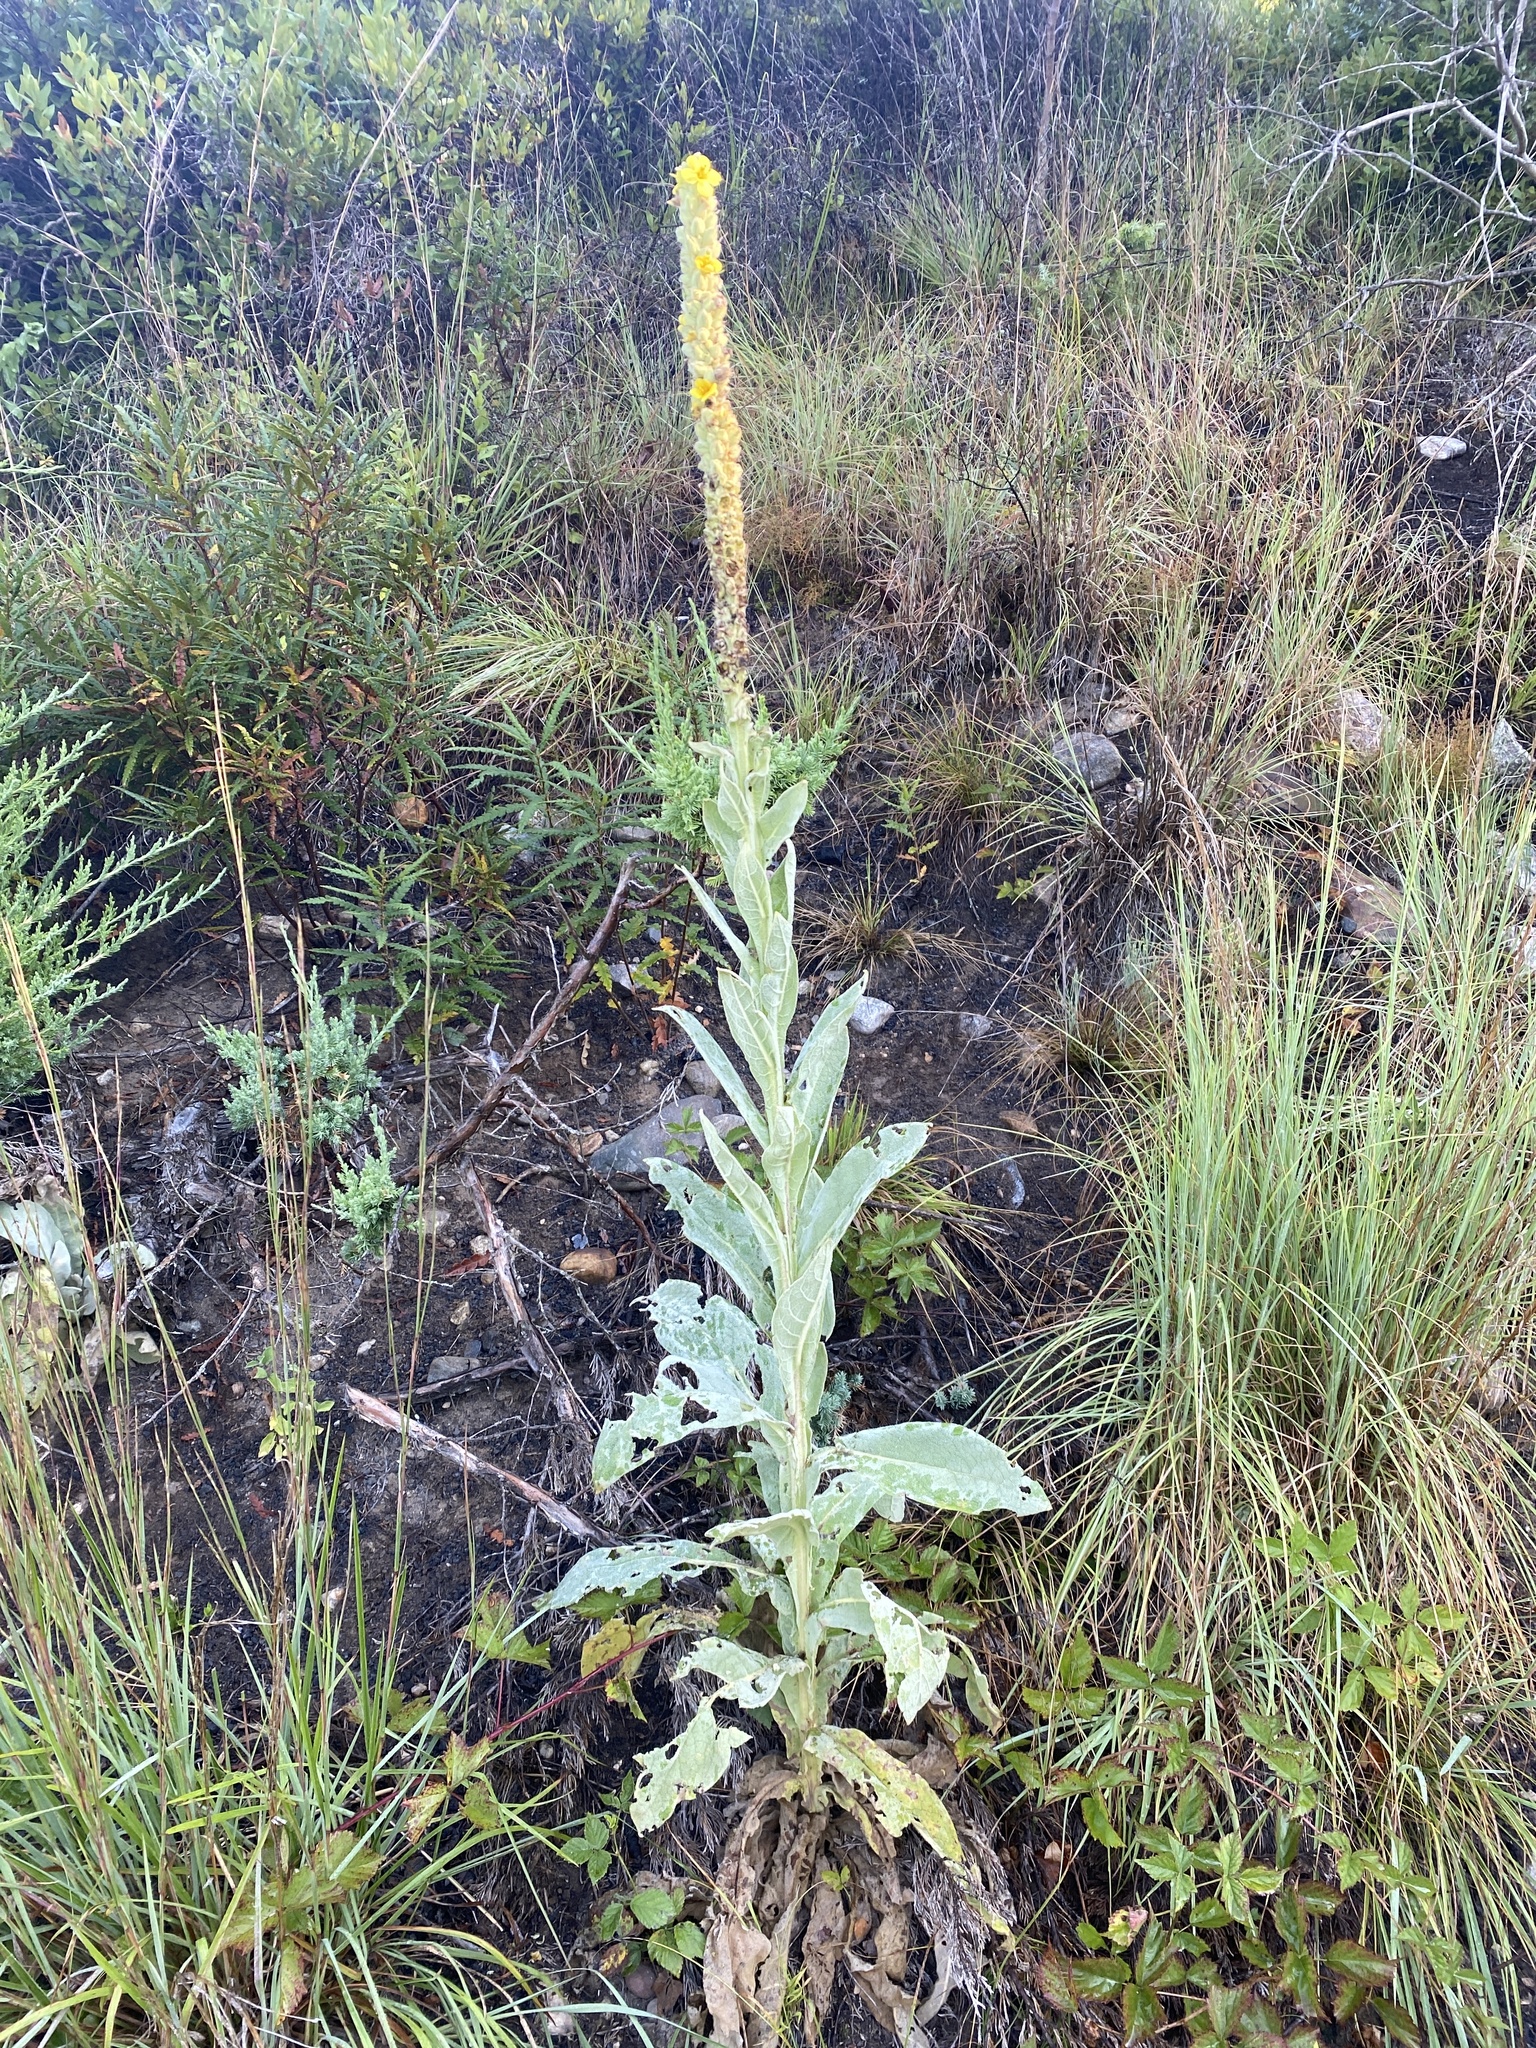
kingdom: Plantae
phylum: Tracheophyta
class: Magnoliopsida
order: Lamiales
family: Scrophulariaceae
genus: Verbascum
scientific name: Verbascum thapsus
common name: Common mullein
